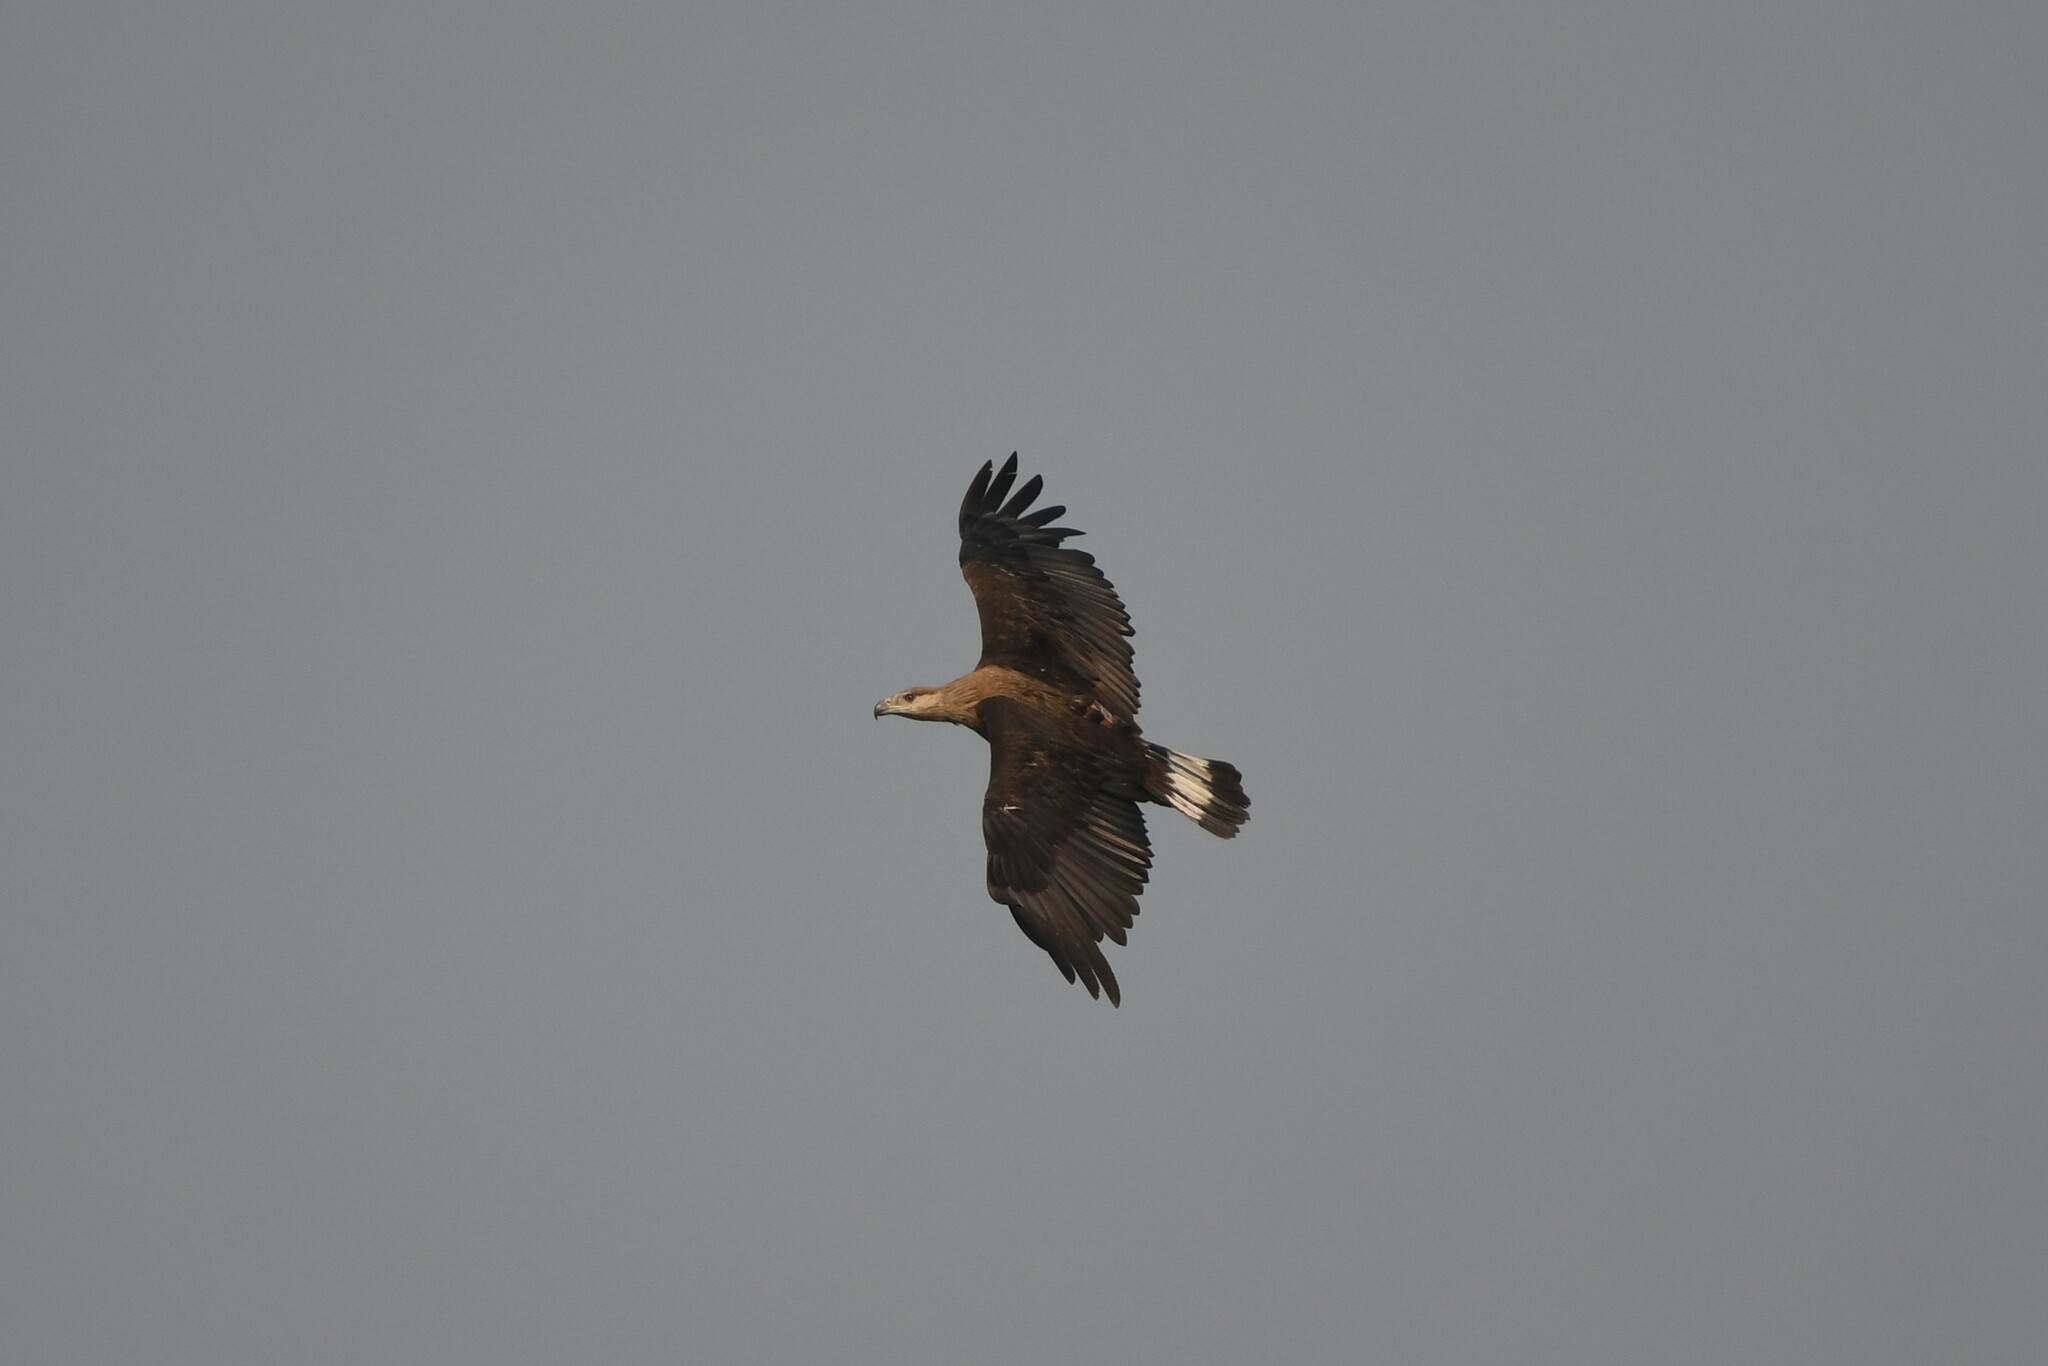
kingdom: Animalia
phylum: Chordata
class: Aves
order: Accipitriformes
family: Accipitridae
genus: Haliaeetus
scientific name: Haliaeetus leucoryphus
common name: Pallas's fish eagle
